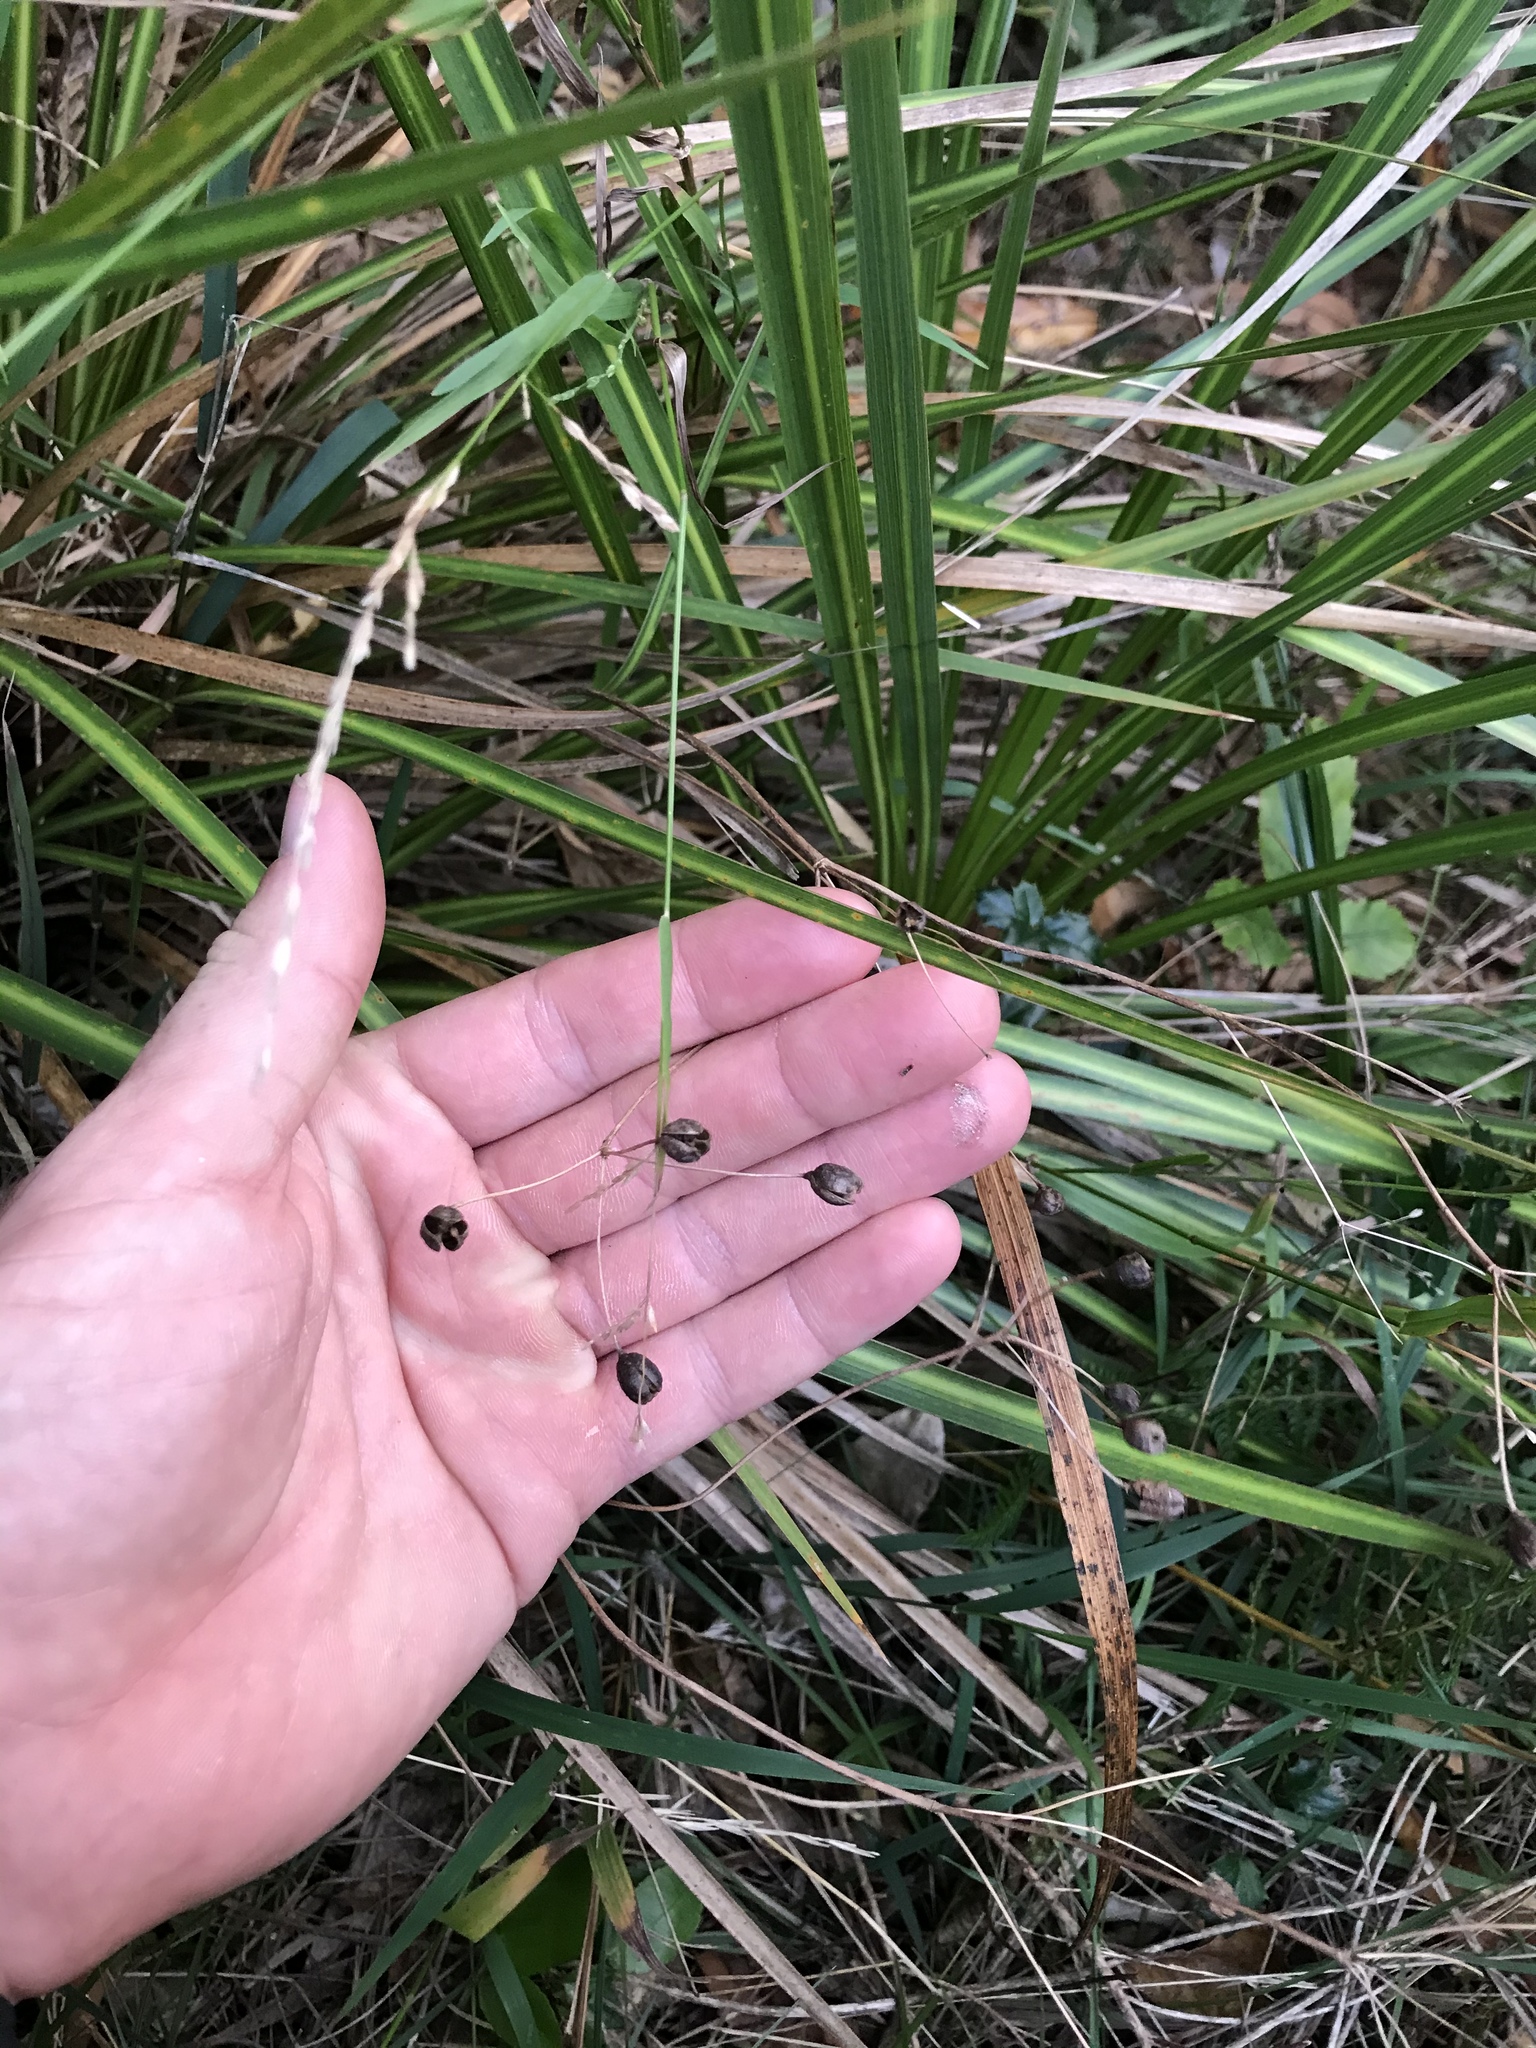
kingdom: Plantae
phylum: Tracheophyta
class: Liliopsida
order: Asparagales
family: Iridaceae
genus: Libertia
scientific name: Libertia ixioides
